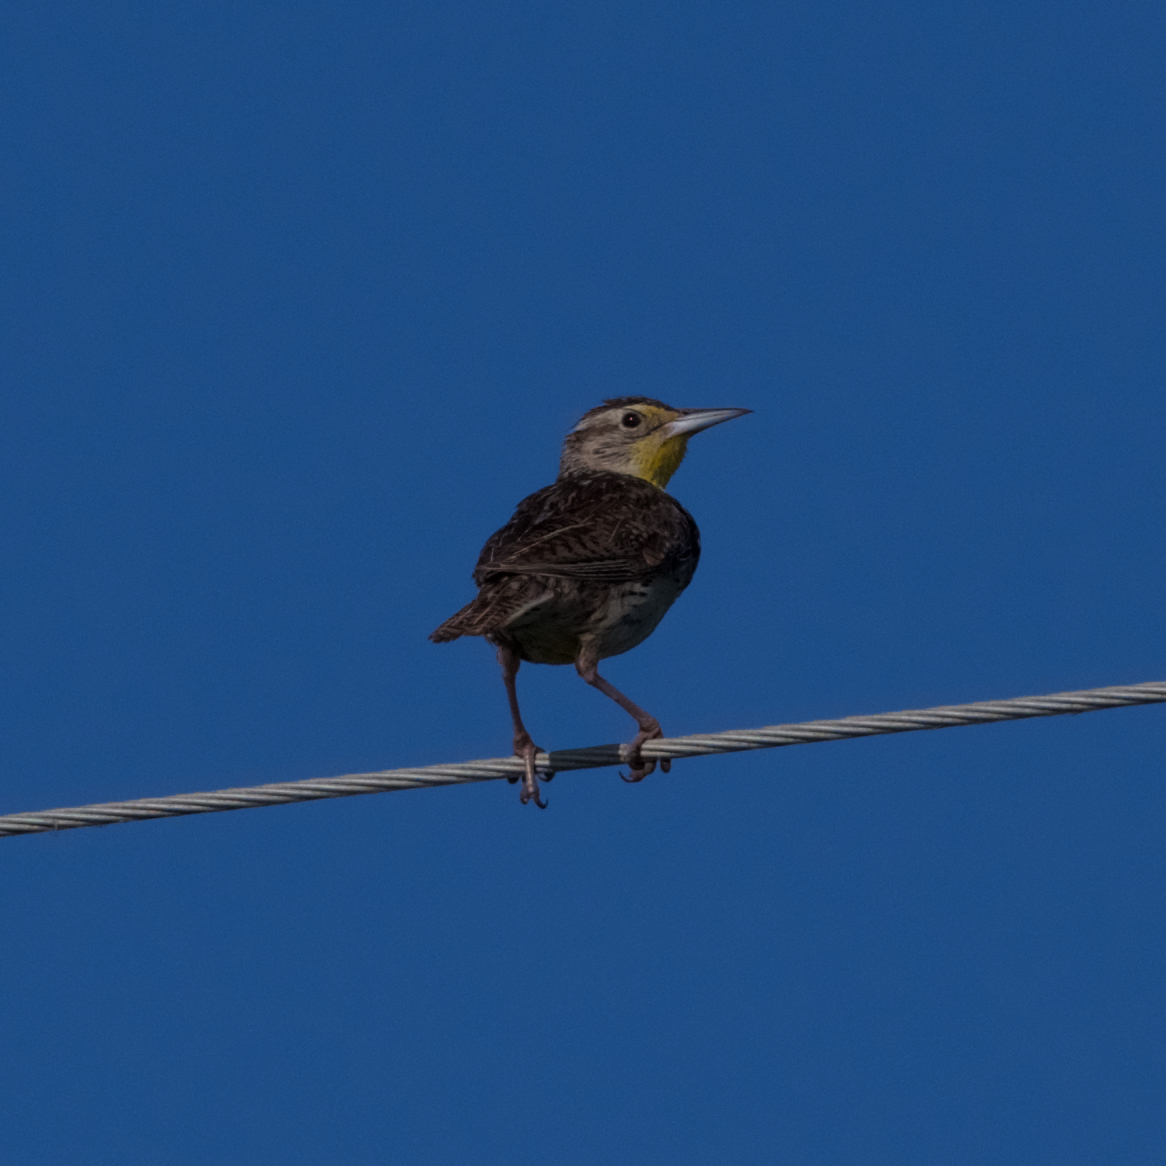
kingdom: Animalia
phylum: Chordata
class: Aves
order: Passeriformes
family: Icteridae
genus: Sturnella
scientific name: Sturnella neglecta
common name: Western meadowlark
